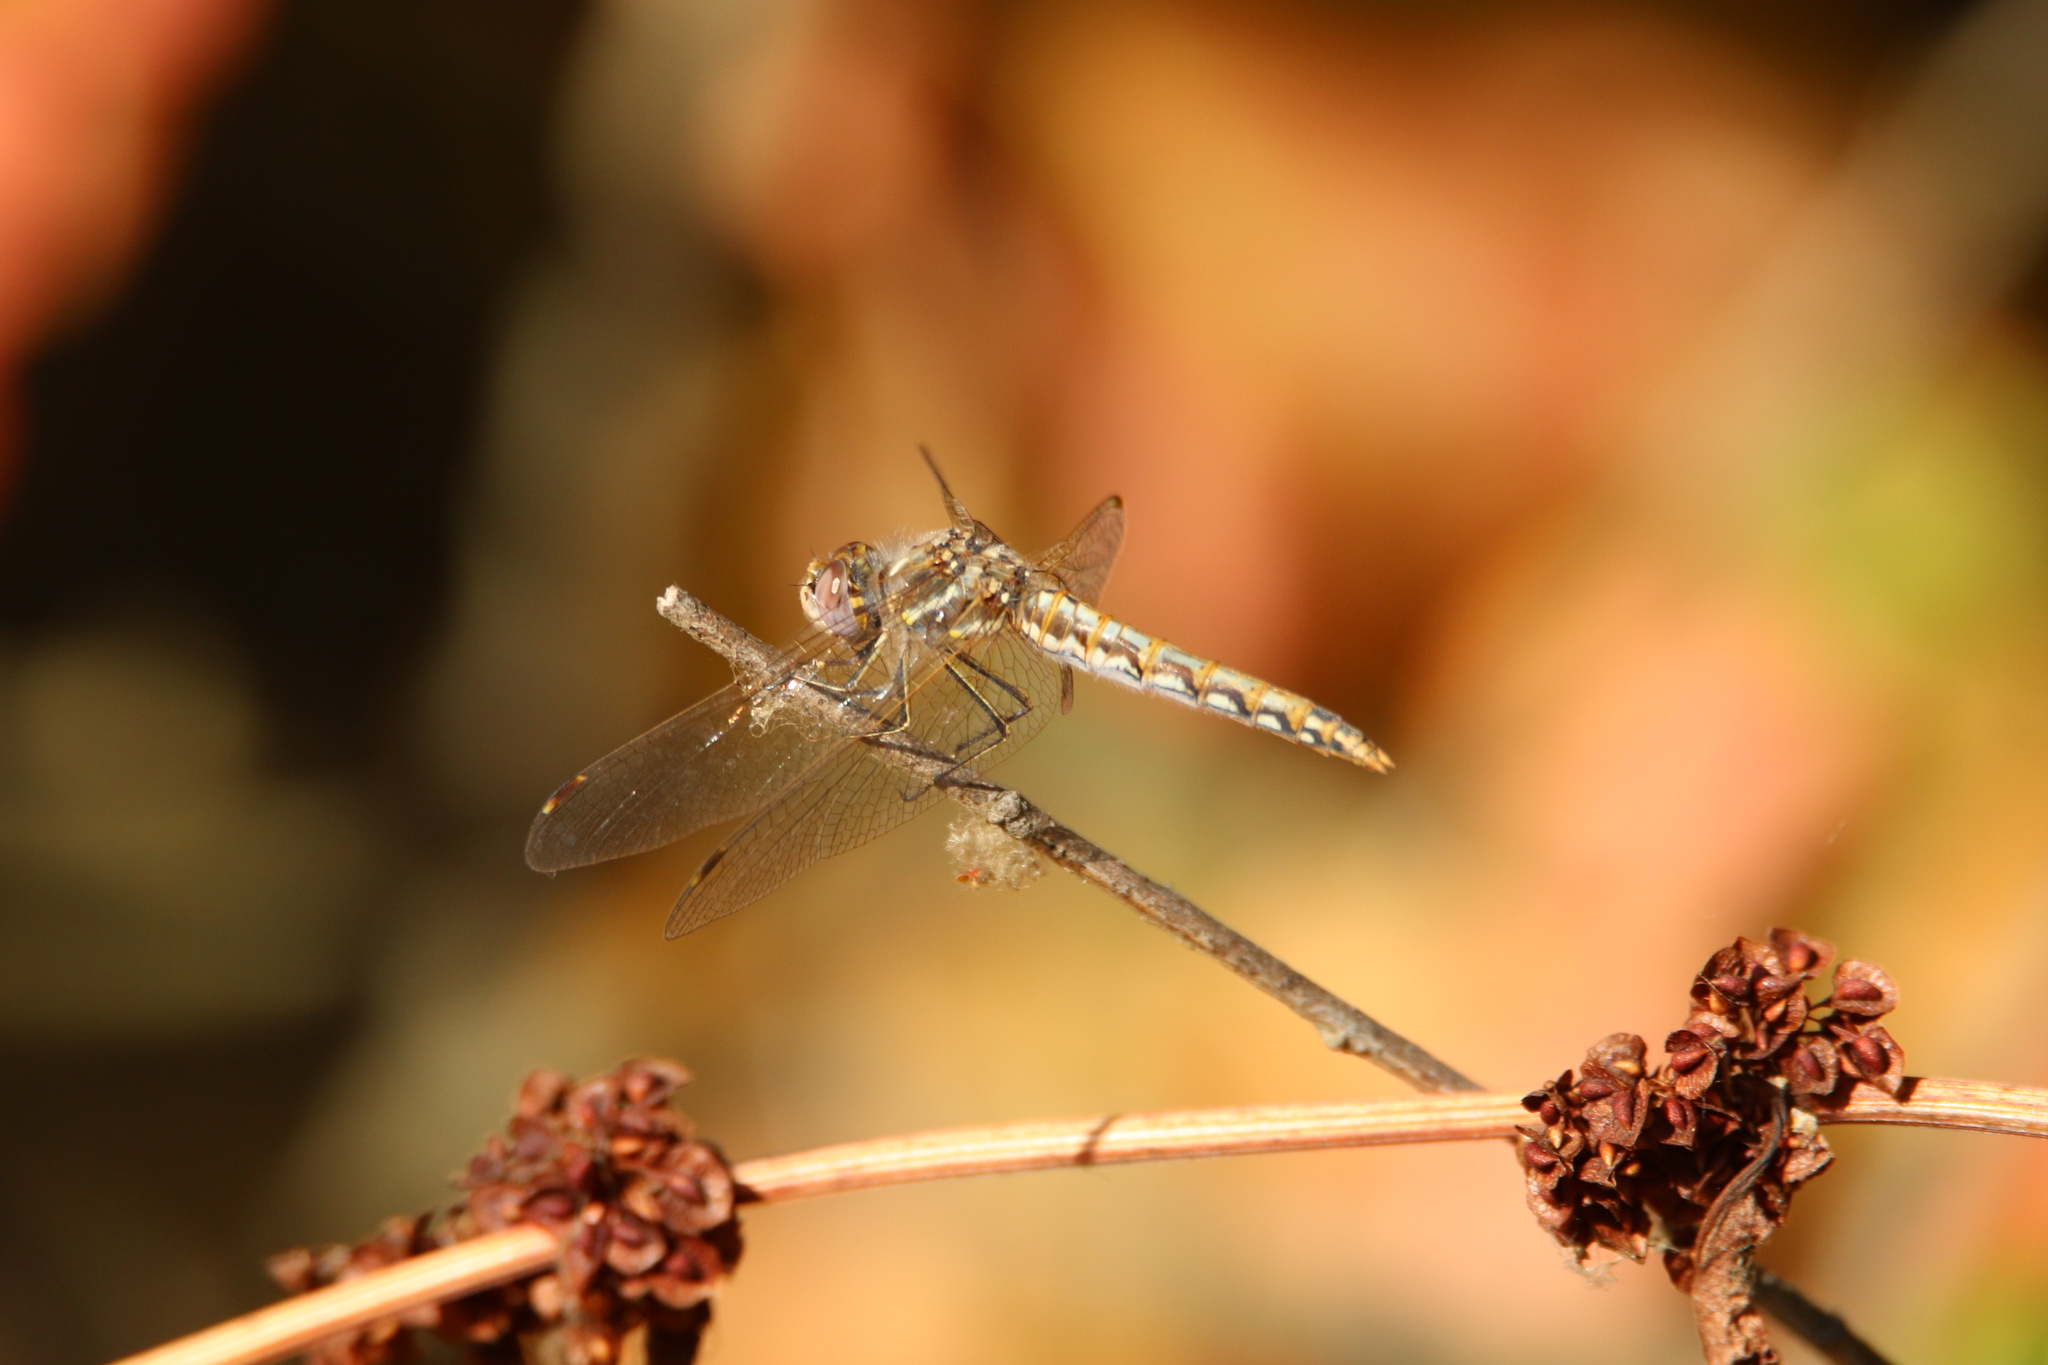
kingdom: Animalia
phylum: Arthropoda
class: Insecta
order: Odonata
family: Libellulidae
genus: Sympetrum
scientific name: Sympetrum corruptum
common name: Variegated meadowhawk
